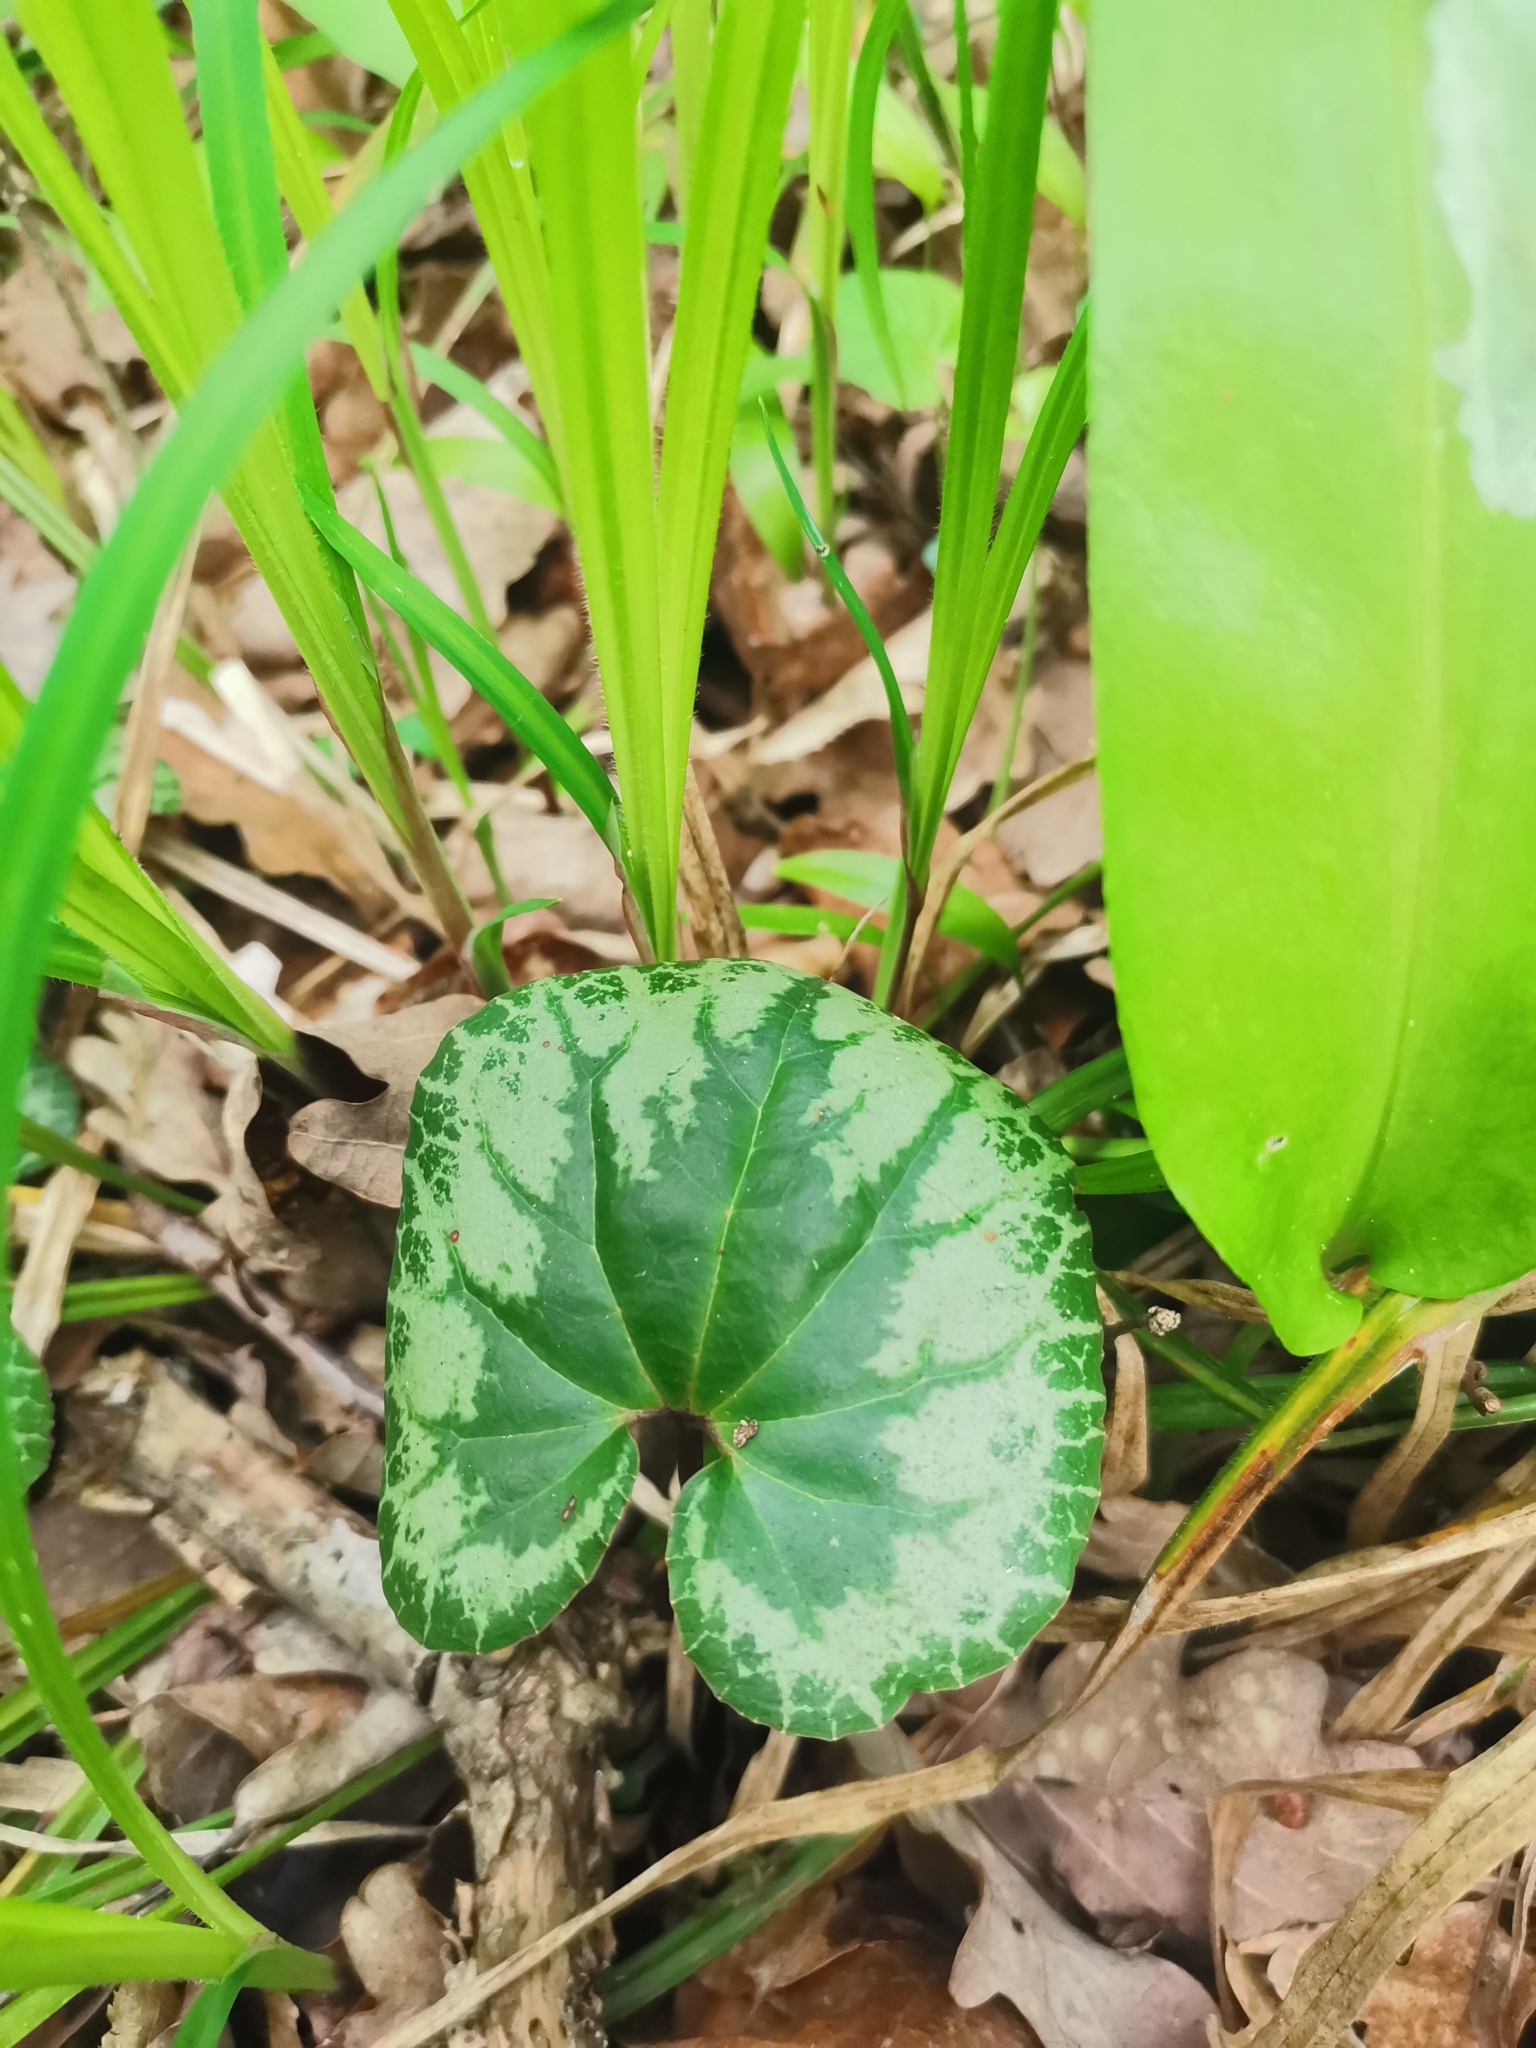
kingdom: Plantae
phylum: Tracheophyta
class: Magnoliopsida
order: Ericales
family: Primulaceae
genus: Cyclamen
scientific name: Cyclamen purpurascens
